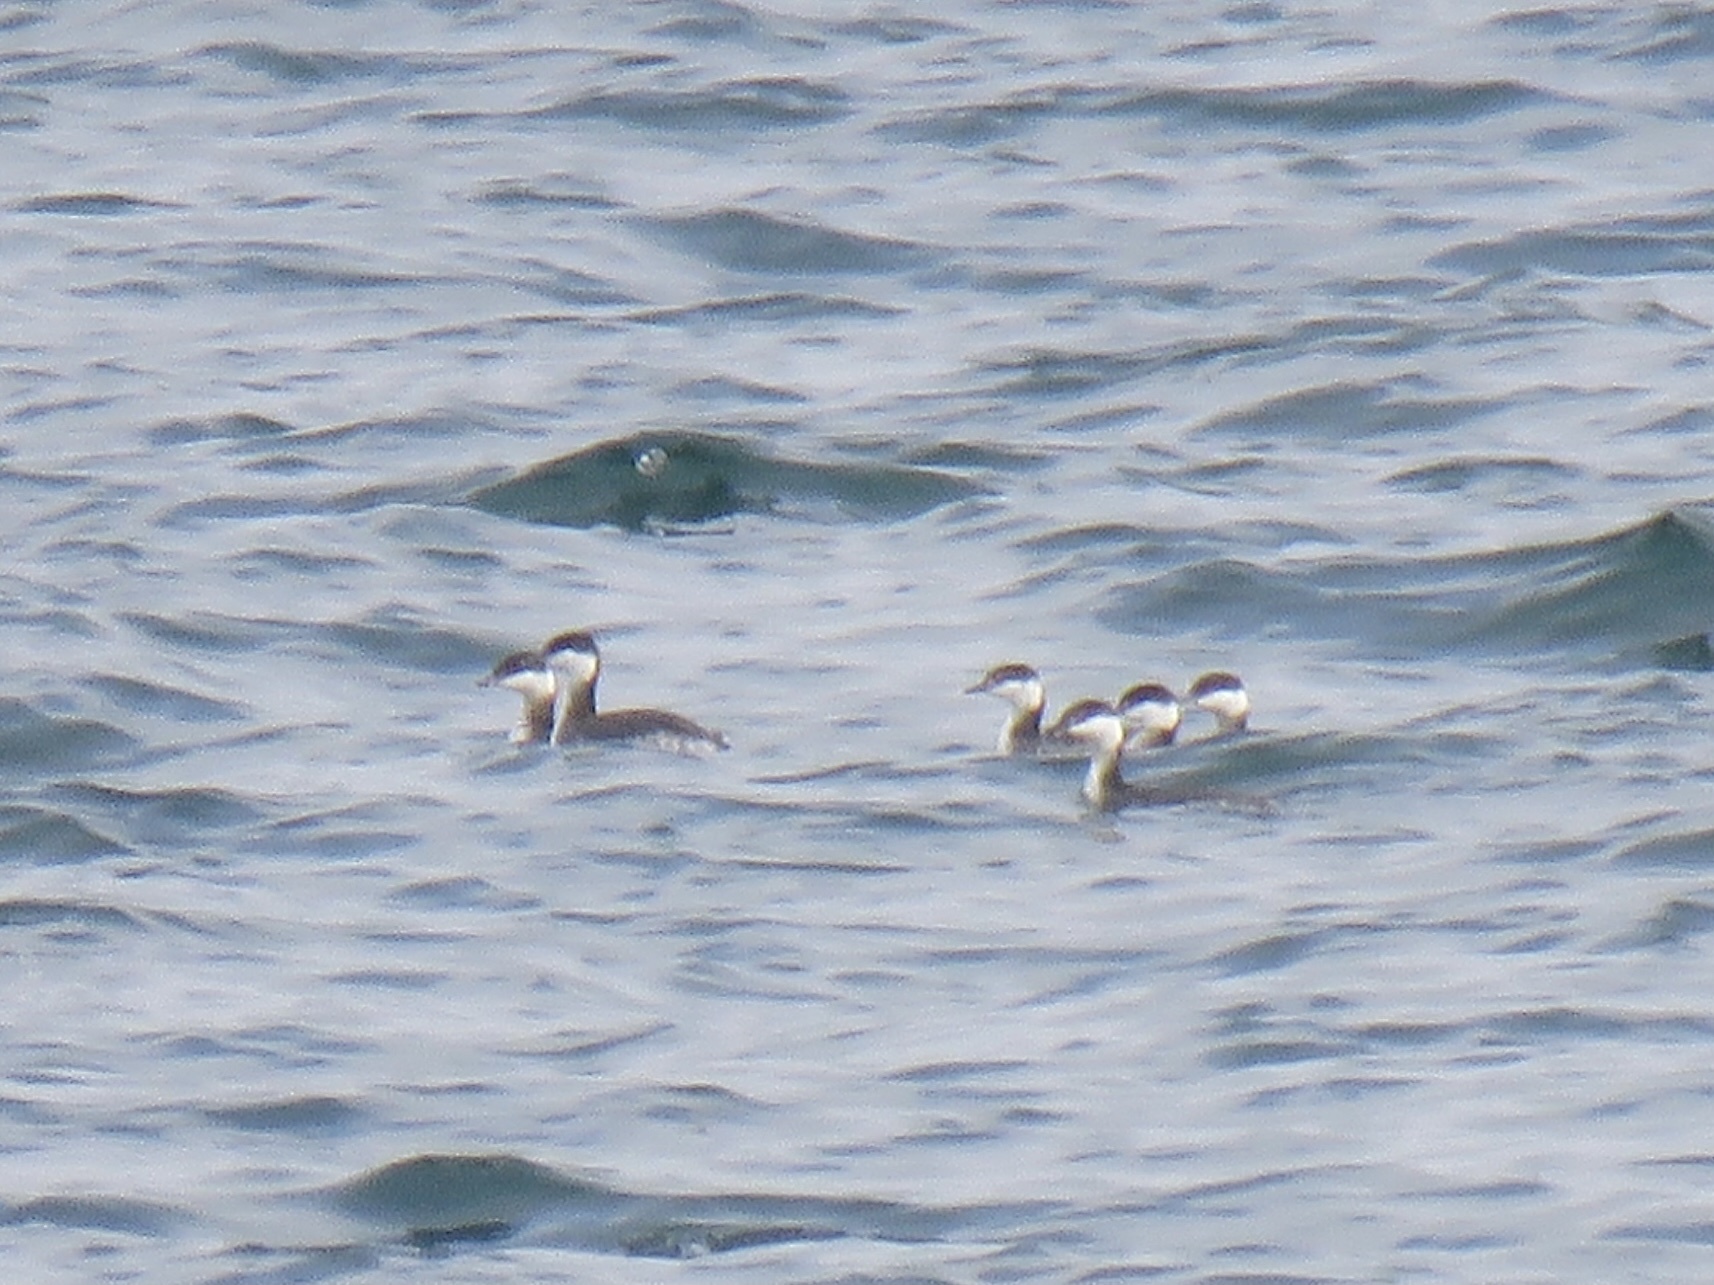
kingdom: Animalia
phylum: Chordata
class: Aves
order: Podicipediformes
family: Podicipedidae
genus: Podiceps
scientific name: Podiceps auritus
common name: Horned grebe
